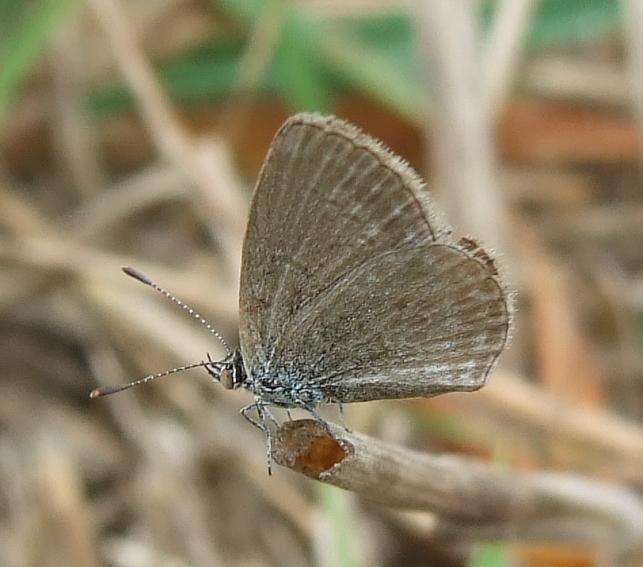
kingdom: Animalia
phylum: Arthropoda
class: Insecta
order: Lepidoptera
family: Lycaenidae
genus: Zizina
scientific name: Zizina labradus
